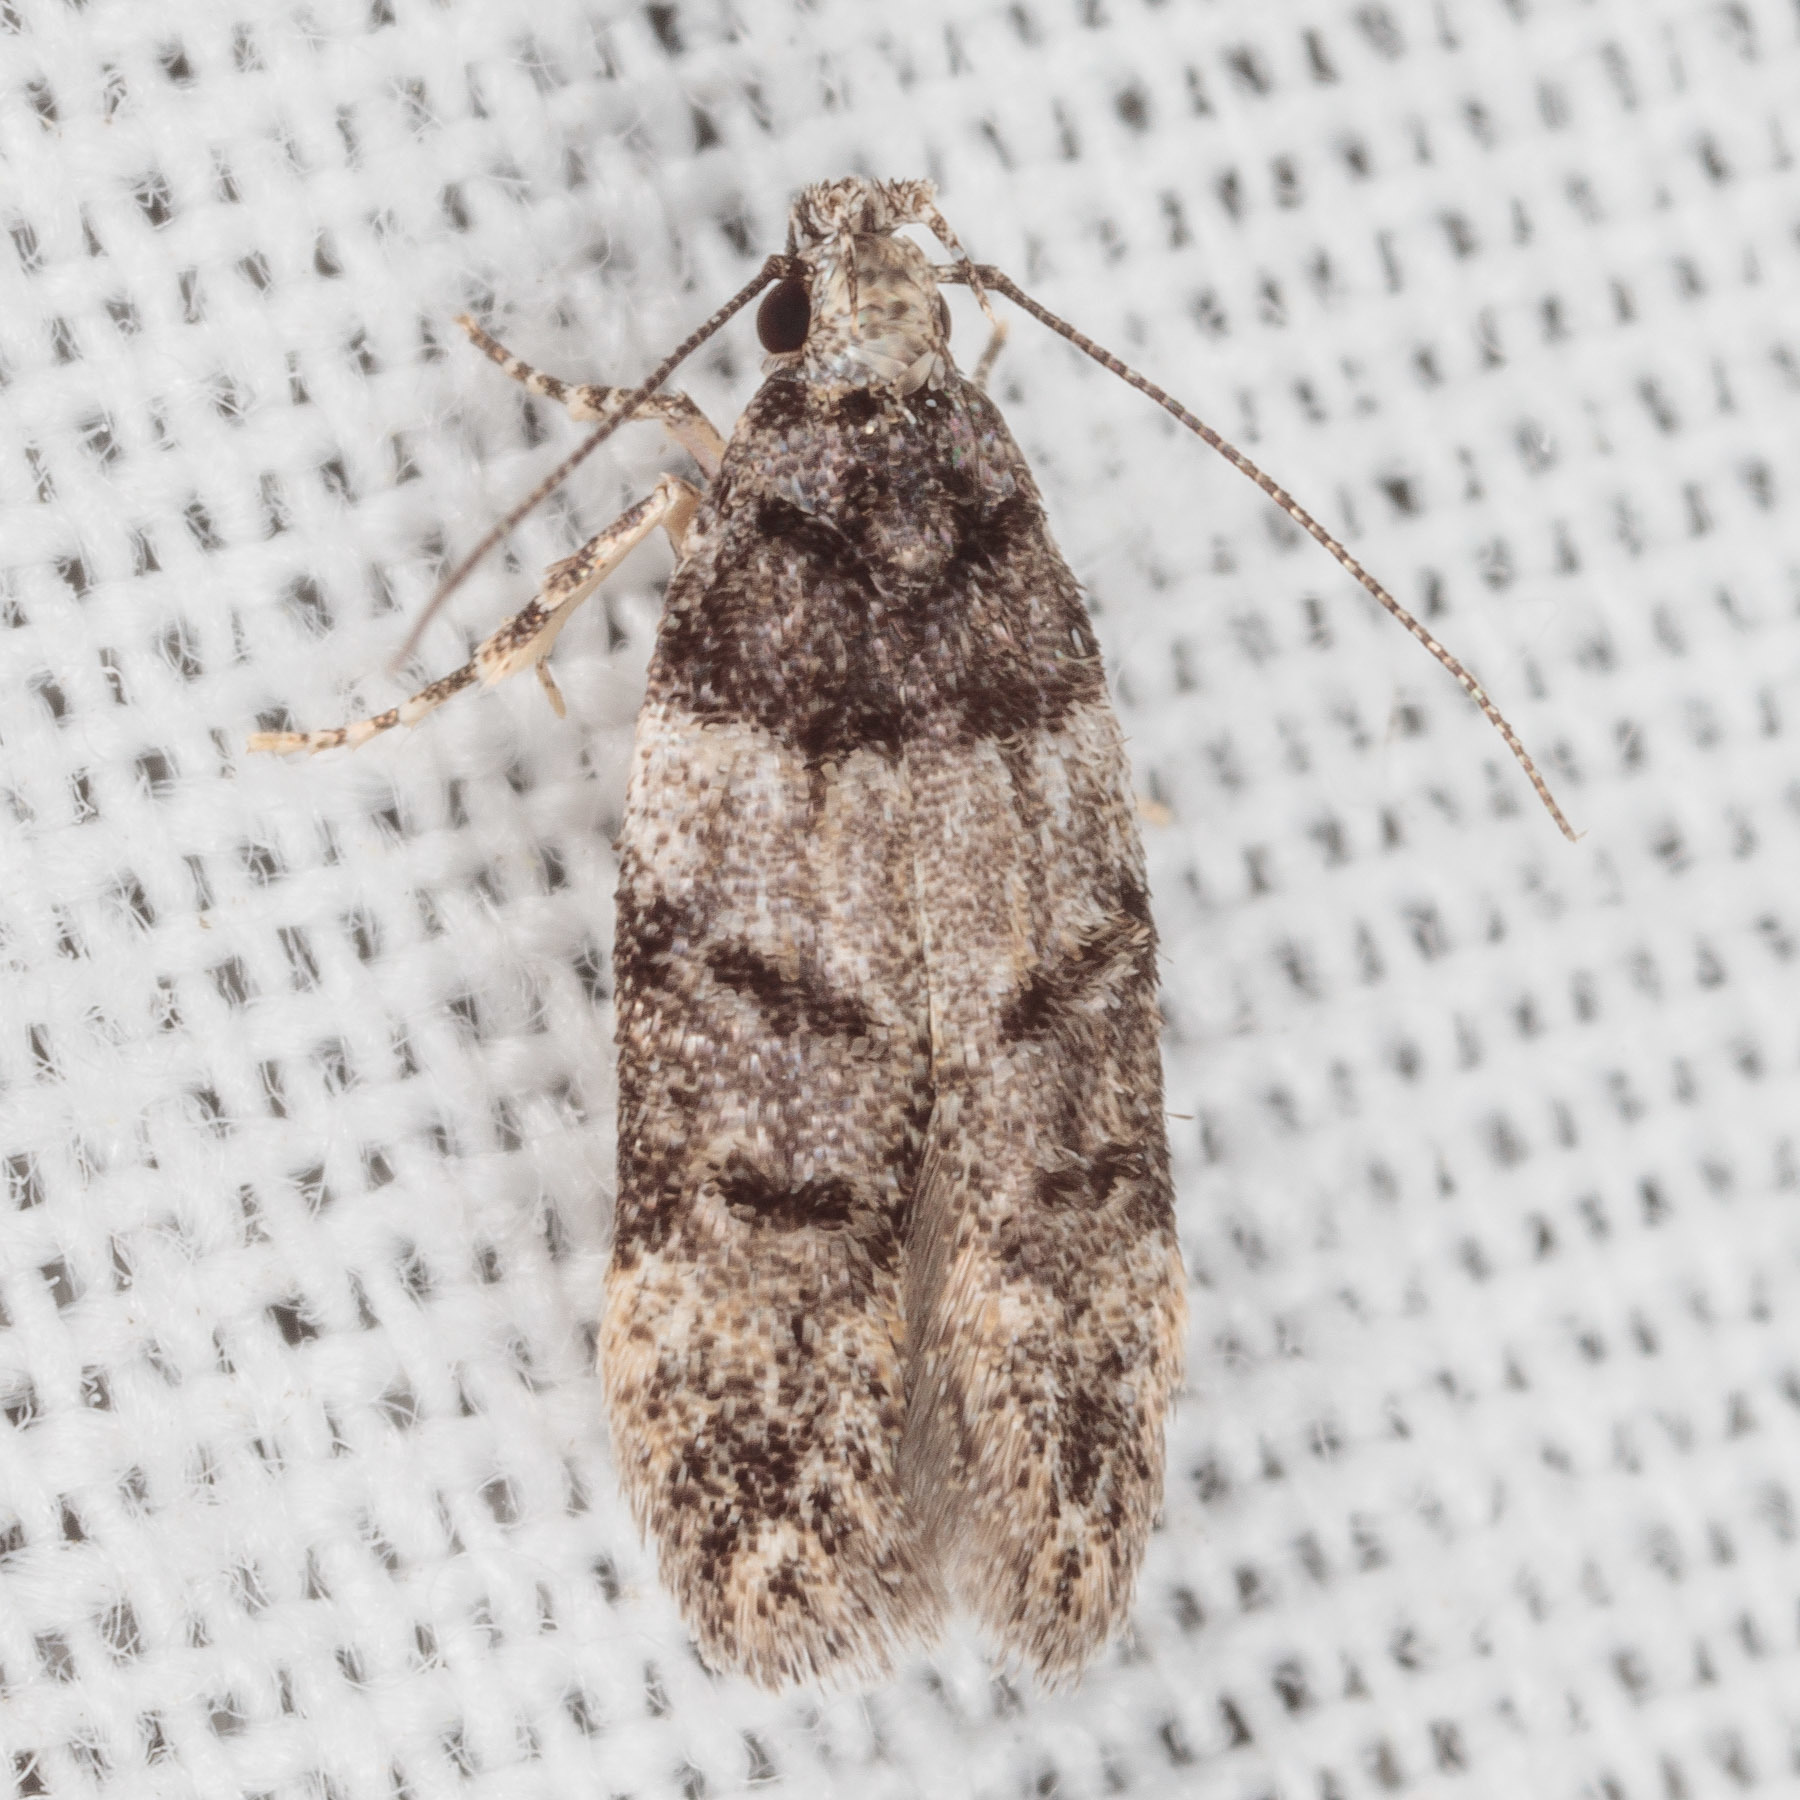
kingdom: Animalia
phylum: Arthropoda
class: Insecta
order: Lepidoptera
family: Gelechiidae
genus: Pubitelphusa
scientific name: Pubitelphusa latifasciella
